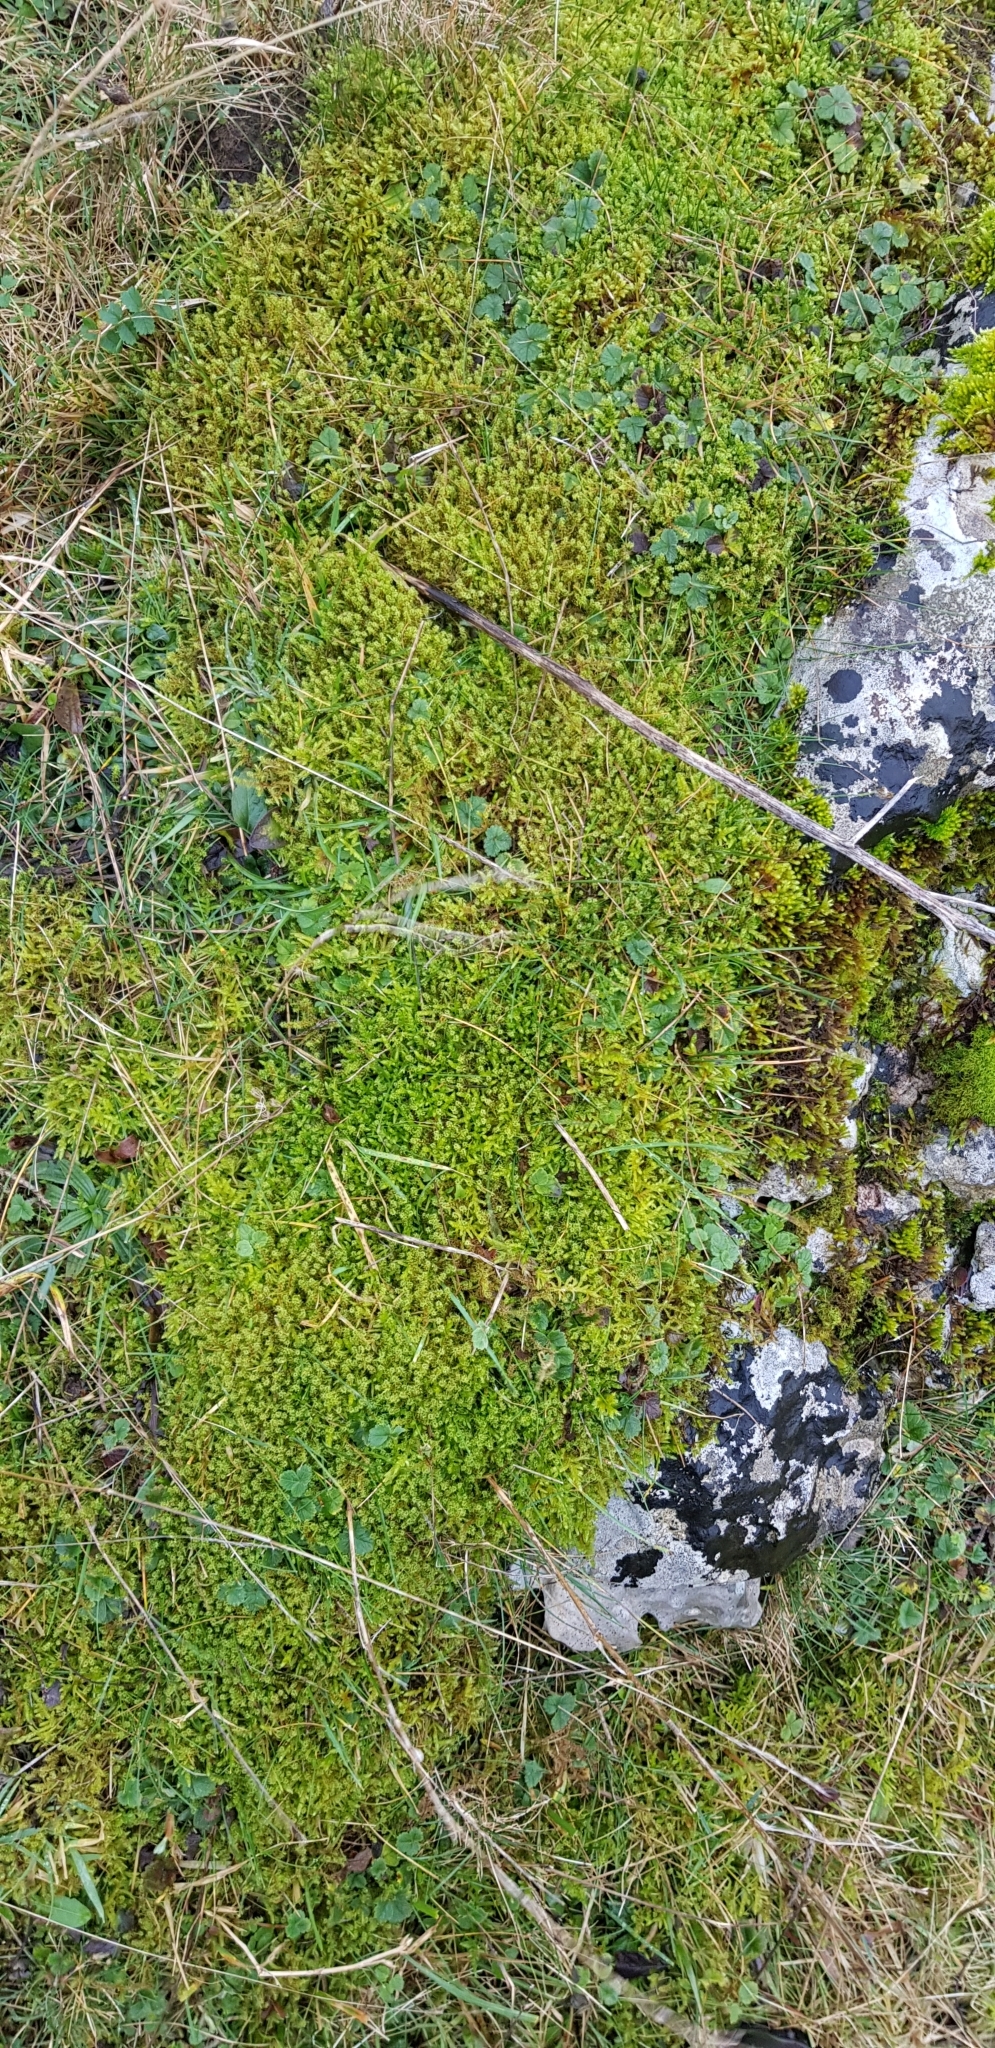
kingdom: Plantae
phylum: Bryophyta
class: Bryopsida
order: Hypnales
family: Brachytheciaceae
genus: Pseudoscleropodium
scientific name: Pseudoscleropodium purum
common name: Neat feather-moss
